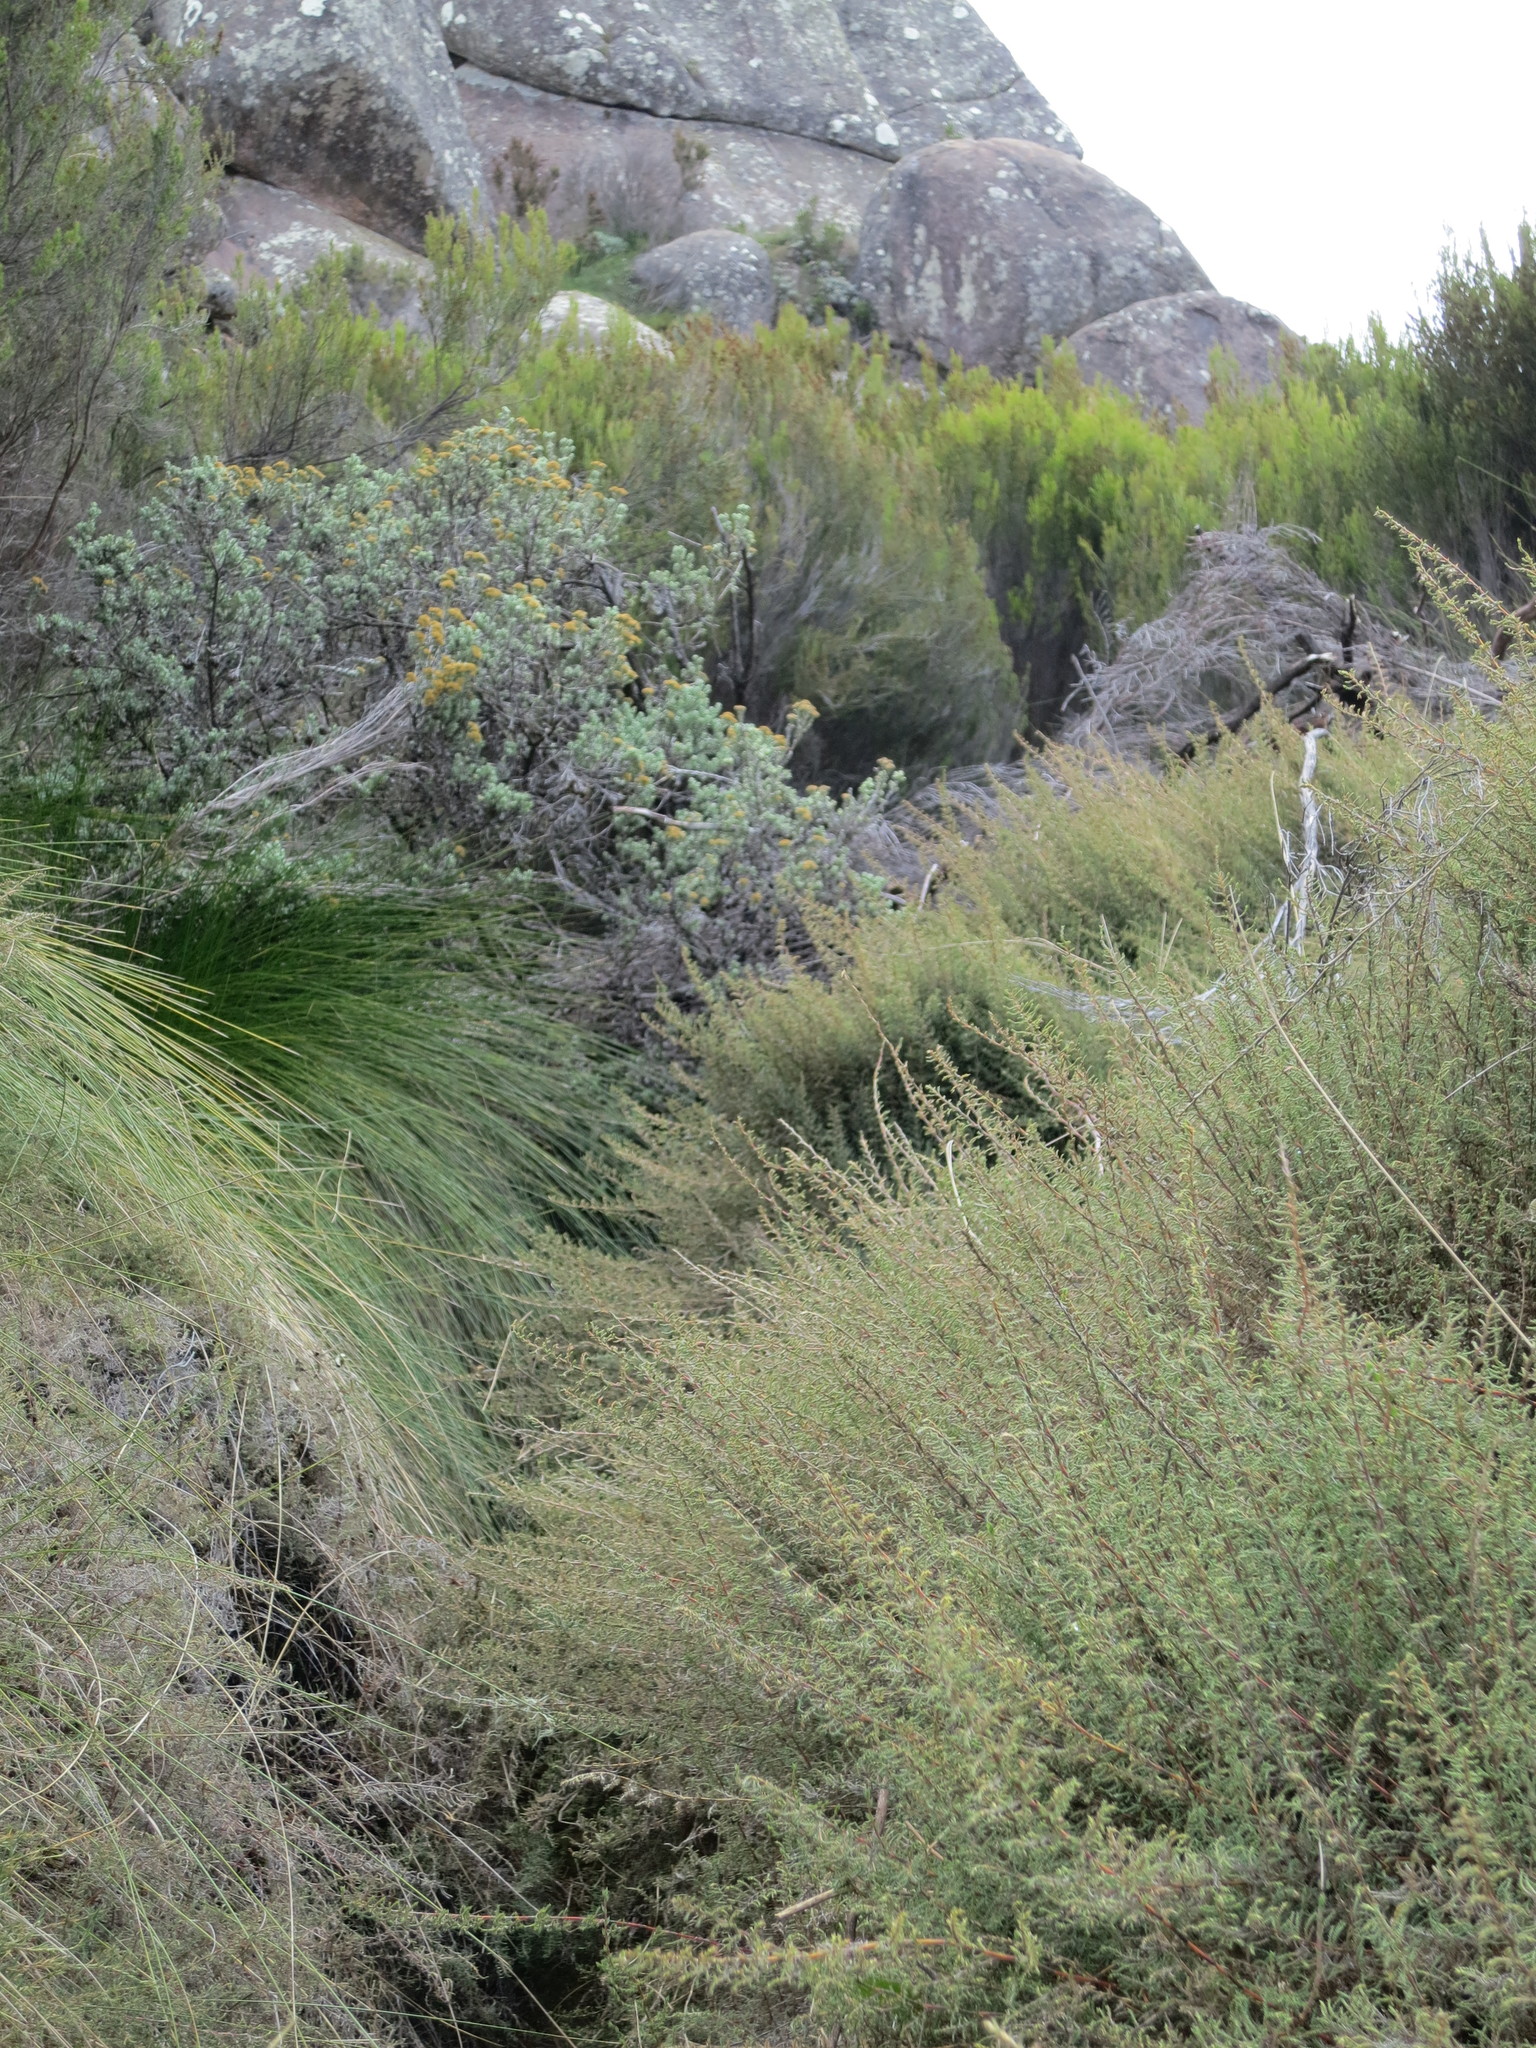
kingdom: Plantae
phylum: Tracheophyta
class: Liliopsida
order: Poales
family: Poaceae
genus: Panicum
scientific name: Panicum cupressifolium
